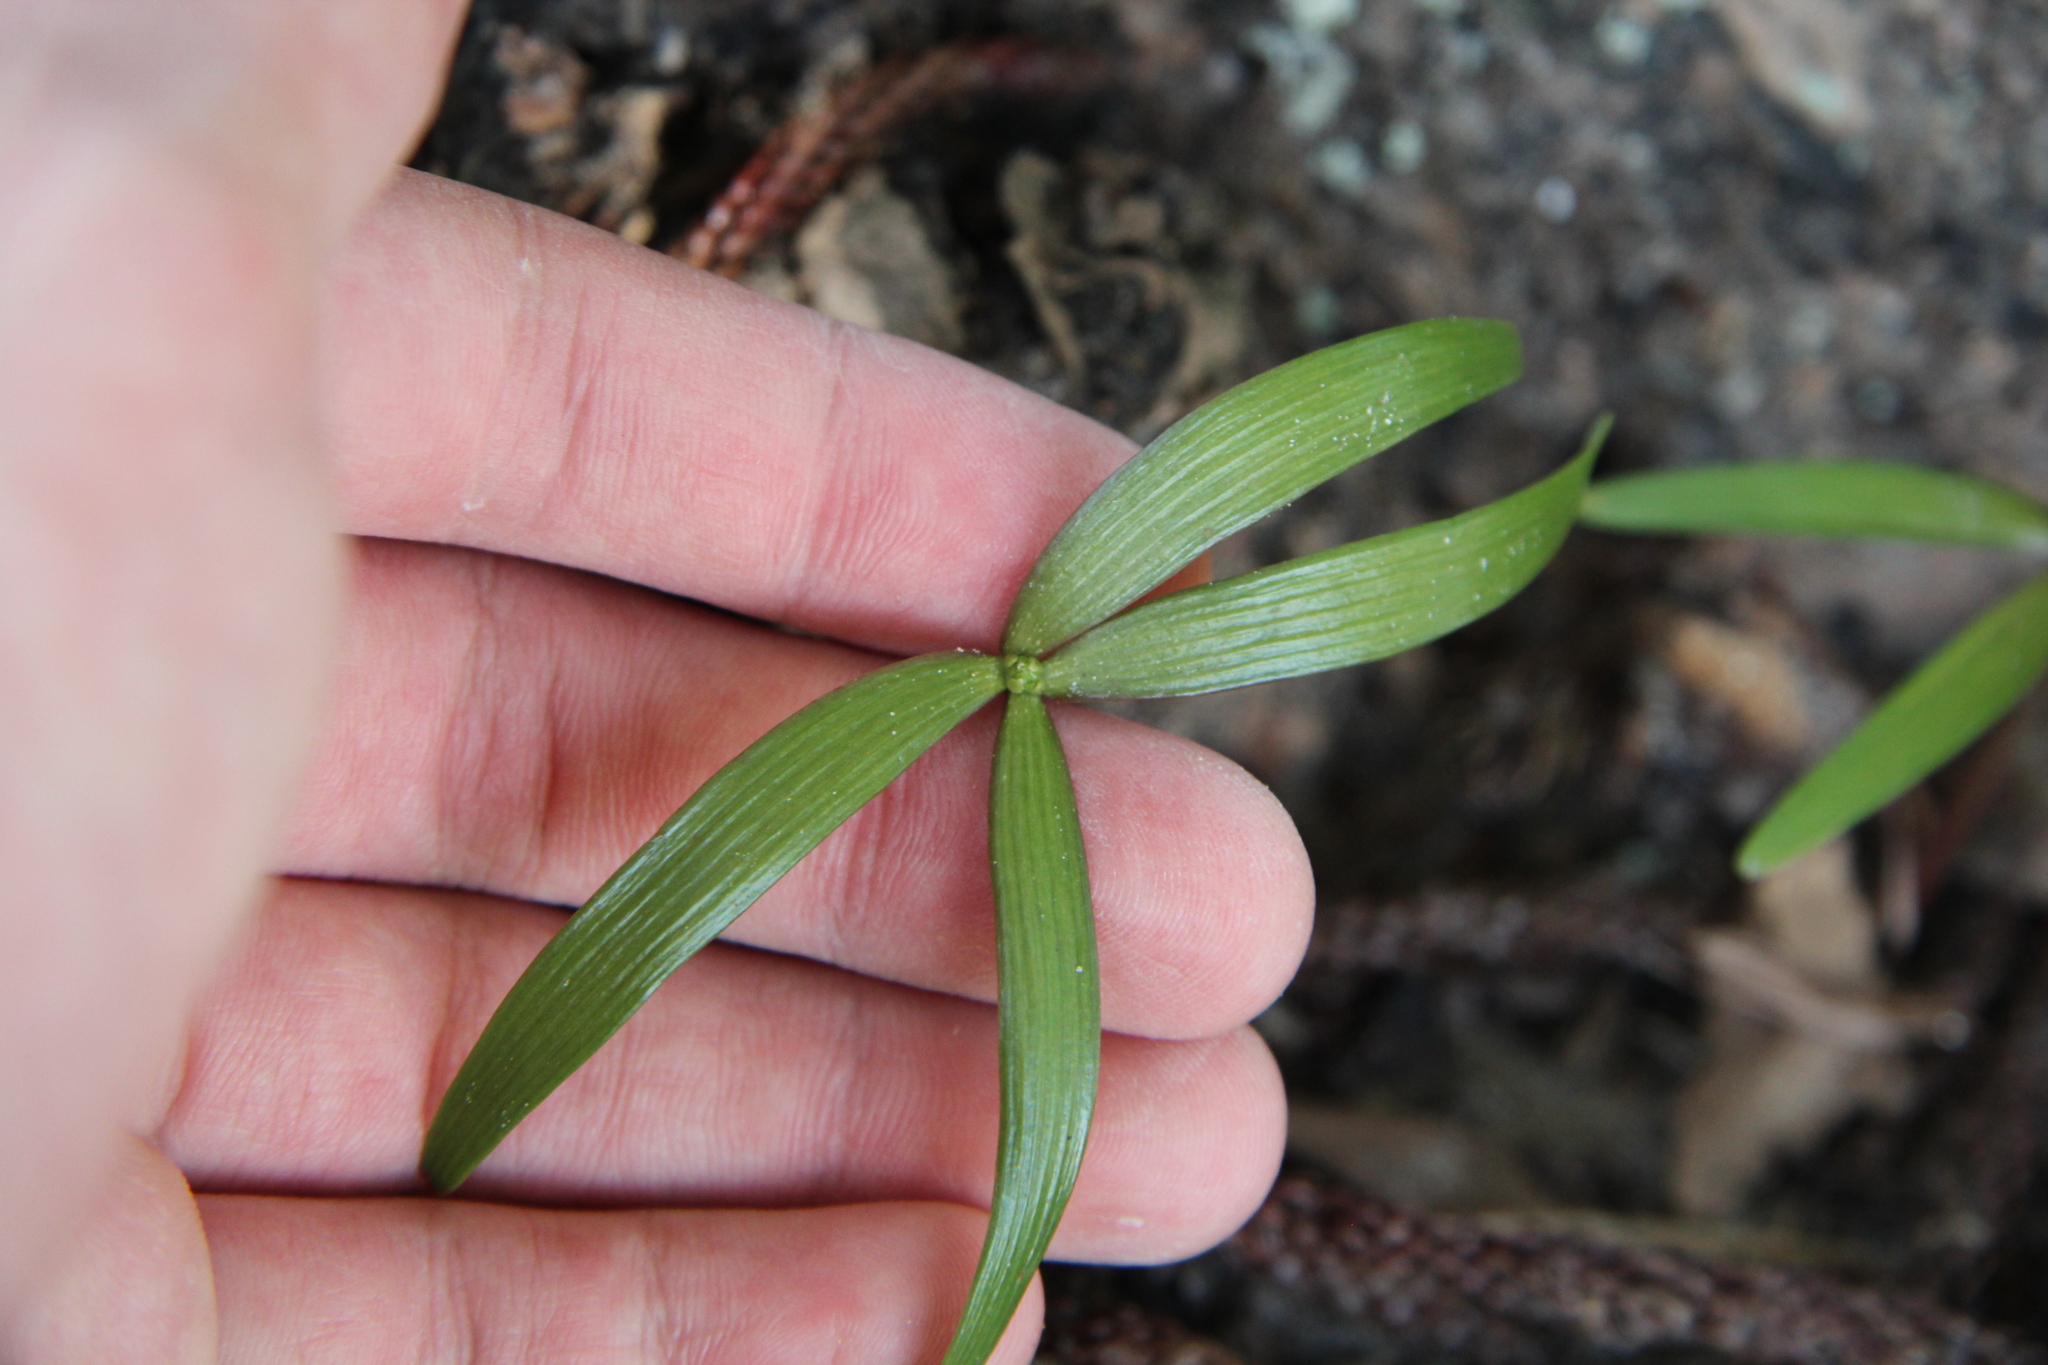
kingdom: Plantae
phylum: Tracheophyta
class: Pinopsida
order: Pinales
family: Araucariaceae
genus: Araucaria
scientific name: Araucaria heterophylla
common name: Norfolk island pine
